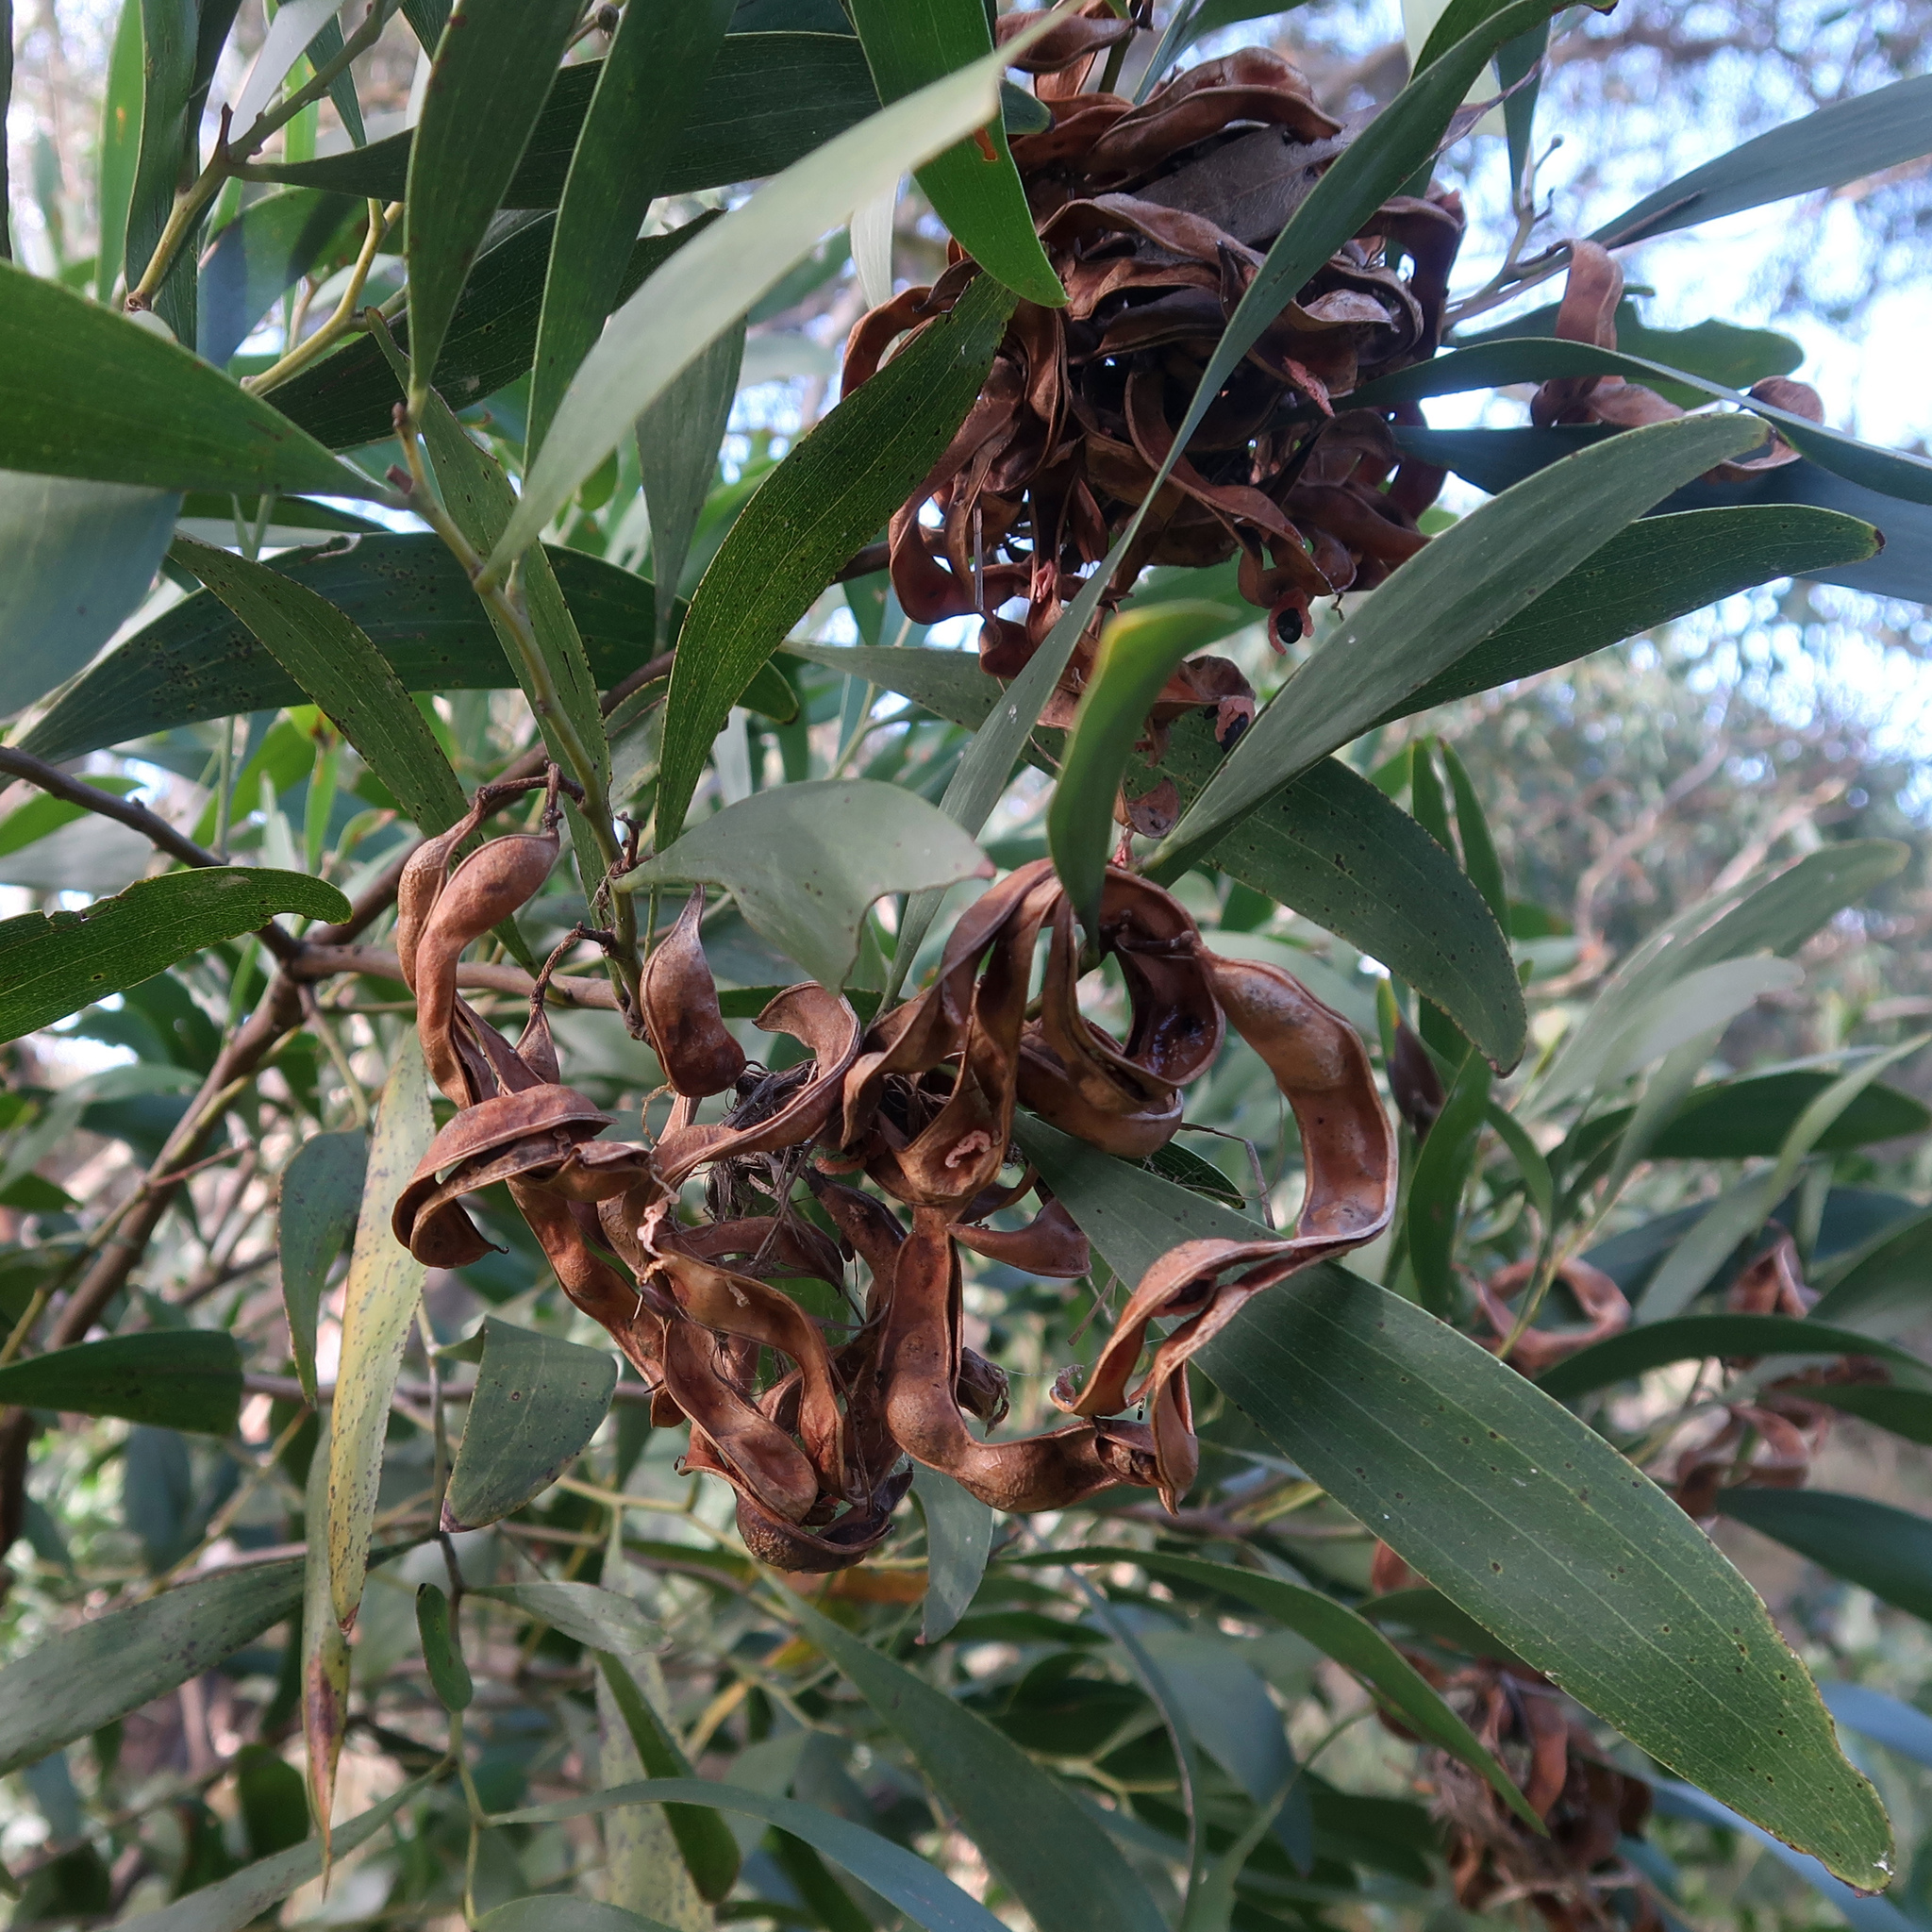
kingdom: Plantae
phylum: Tracheophyta
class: Magnoliopsida
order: Fabales
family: Fabaceae
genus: Acacia
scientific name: Acacia melanoxylon
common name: Blackwood
